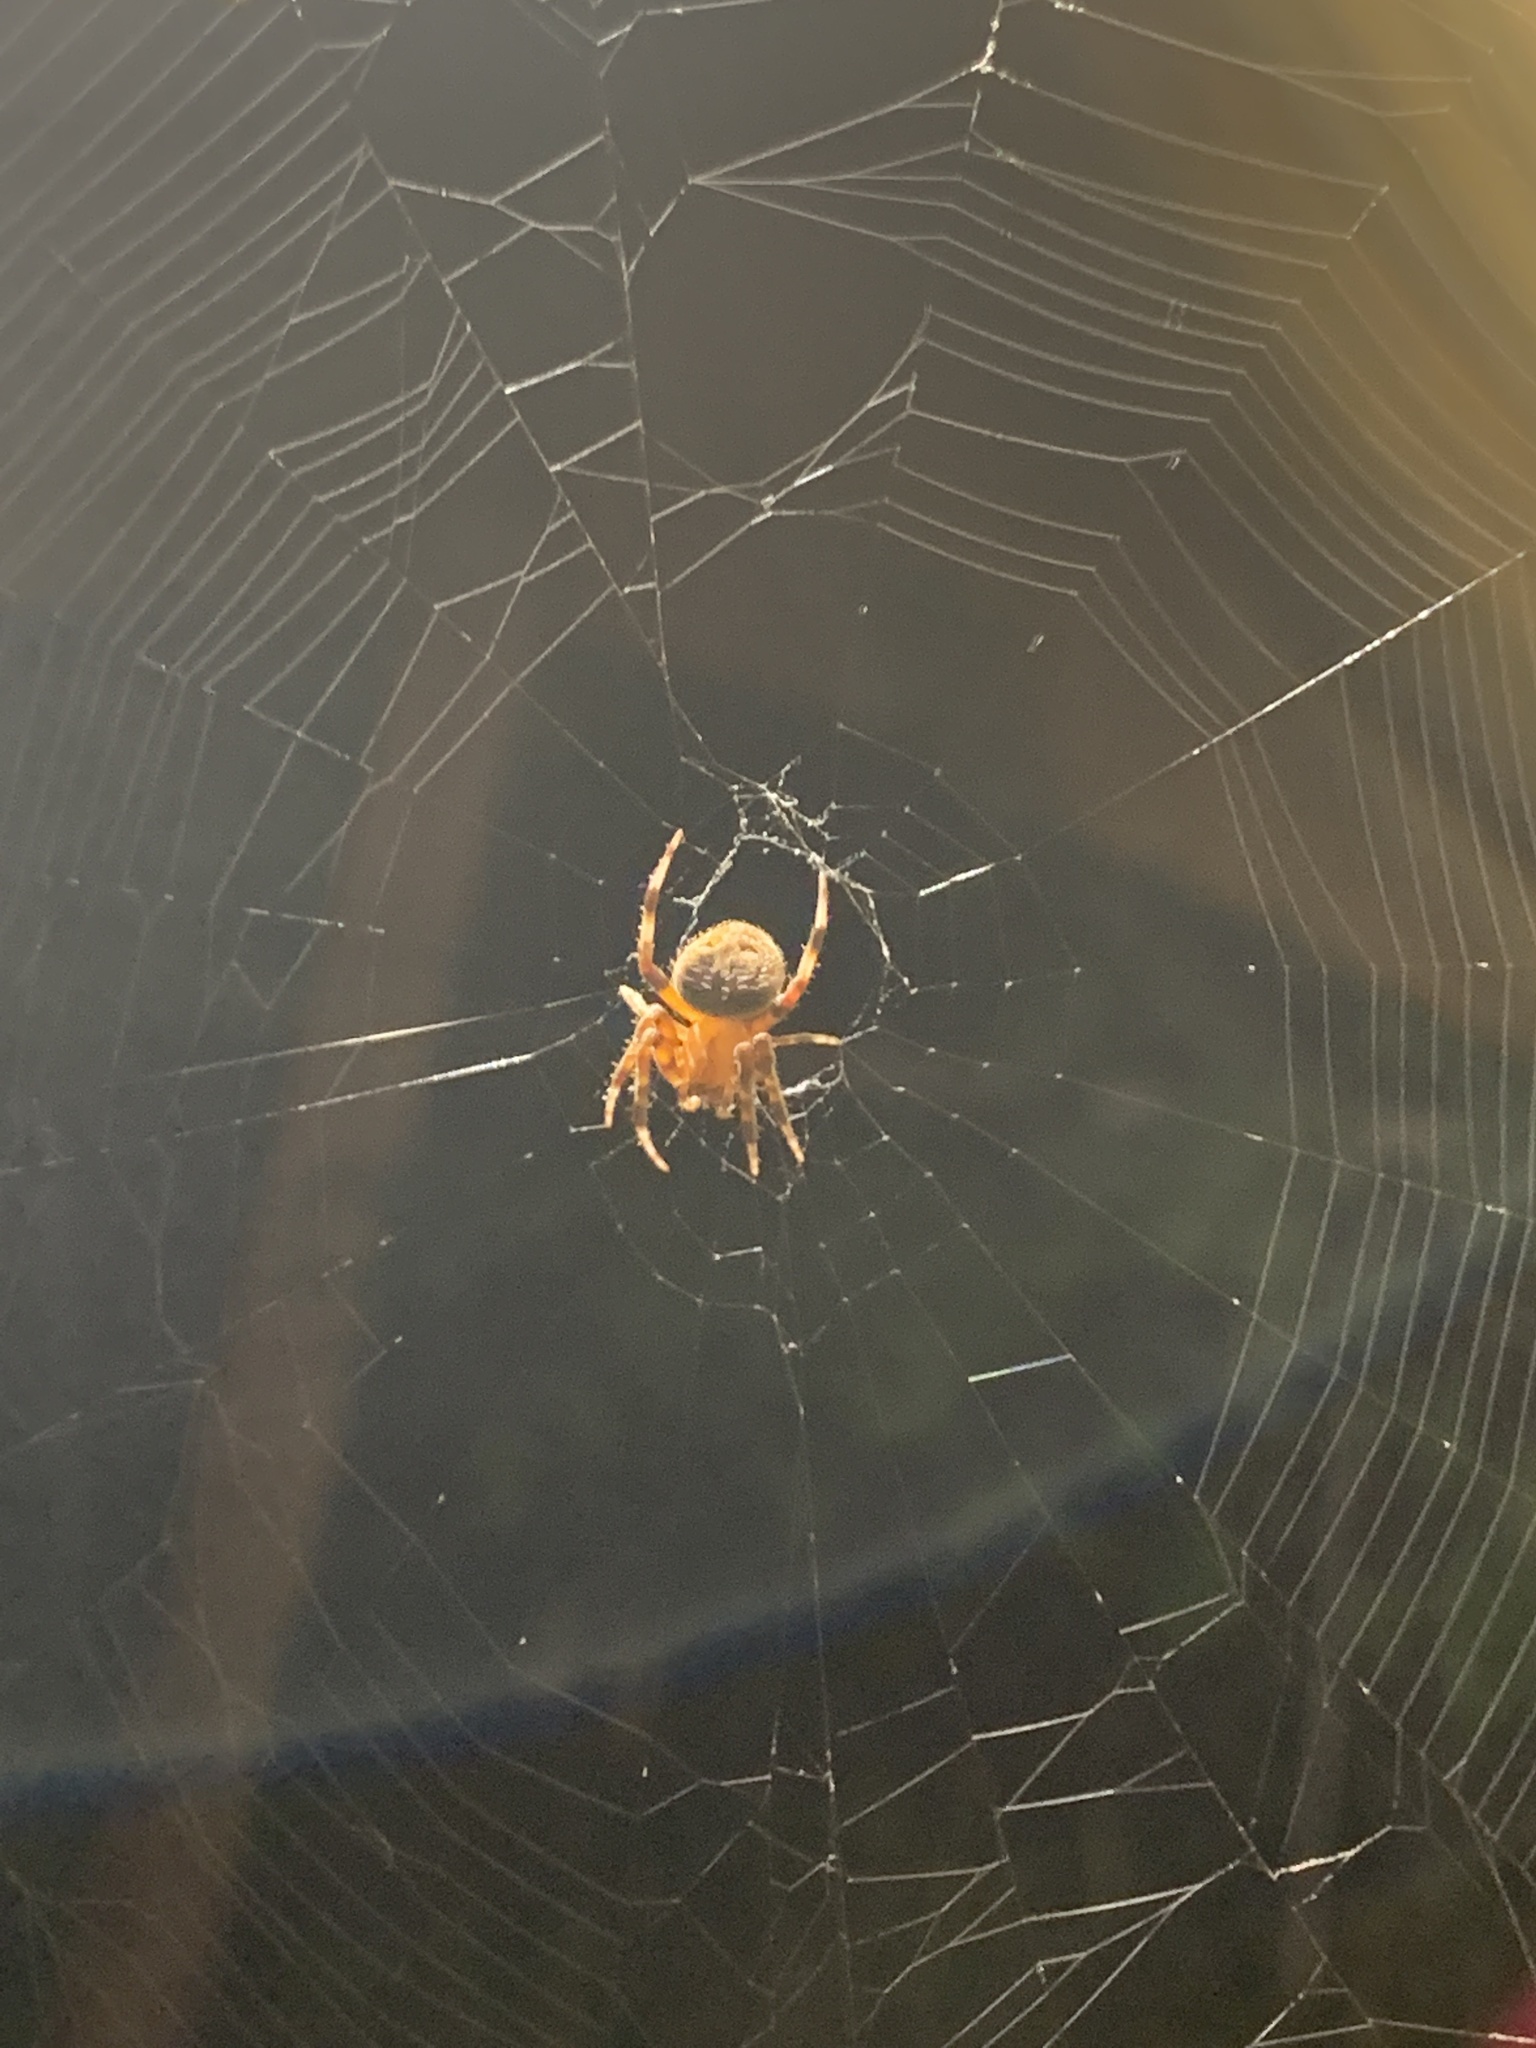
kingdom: Animalia
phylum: Arthropoda
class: Arachnida
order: Araneae
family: Araneidae
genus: Neoscona
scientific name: Neoscona crucifera
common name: Spotted orbweaver
